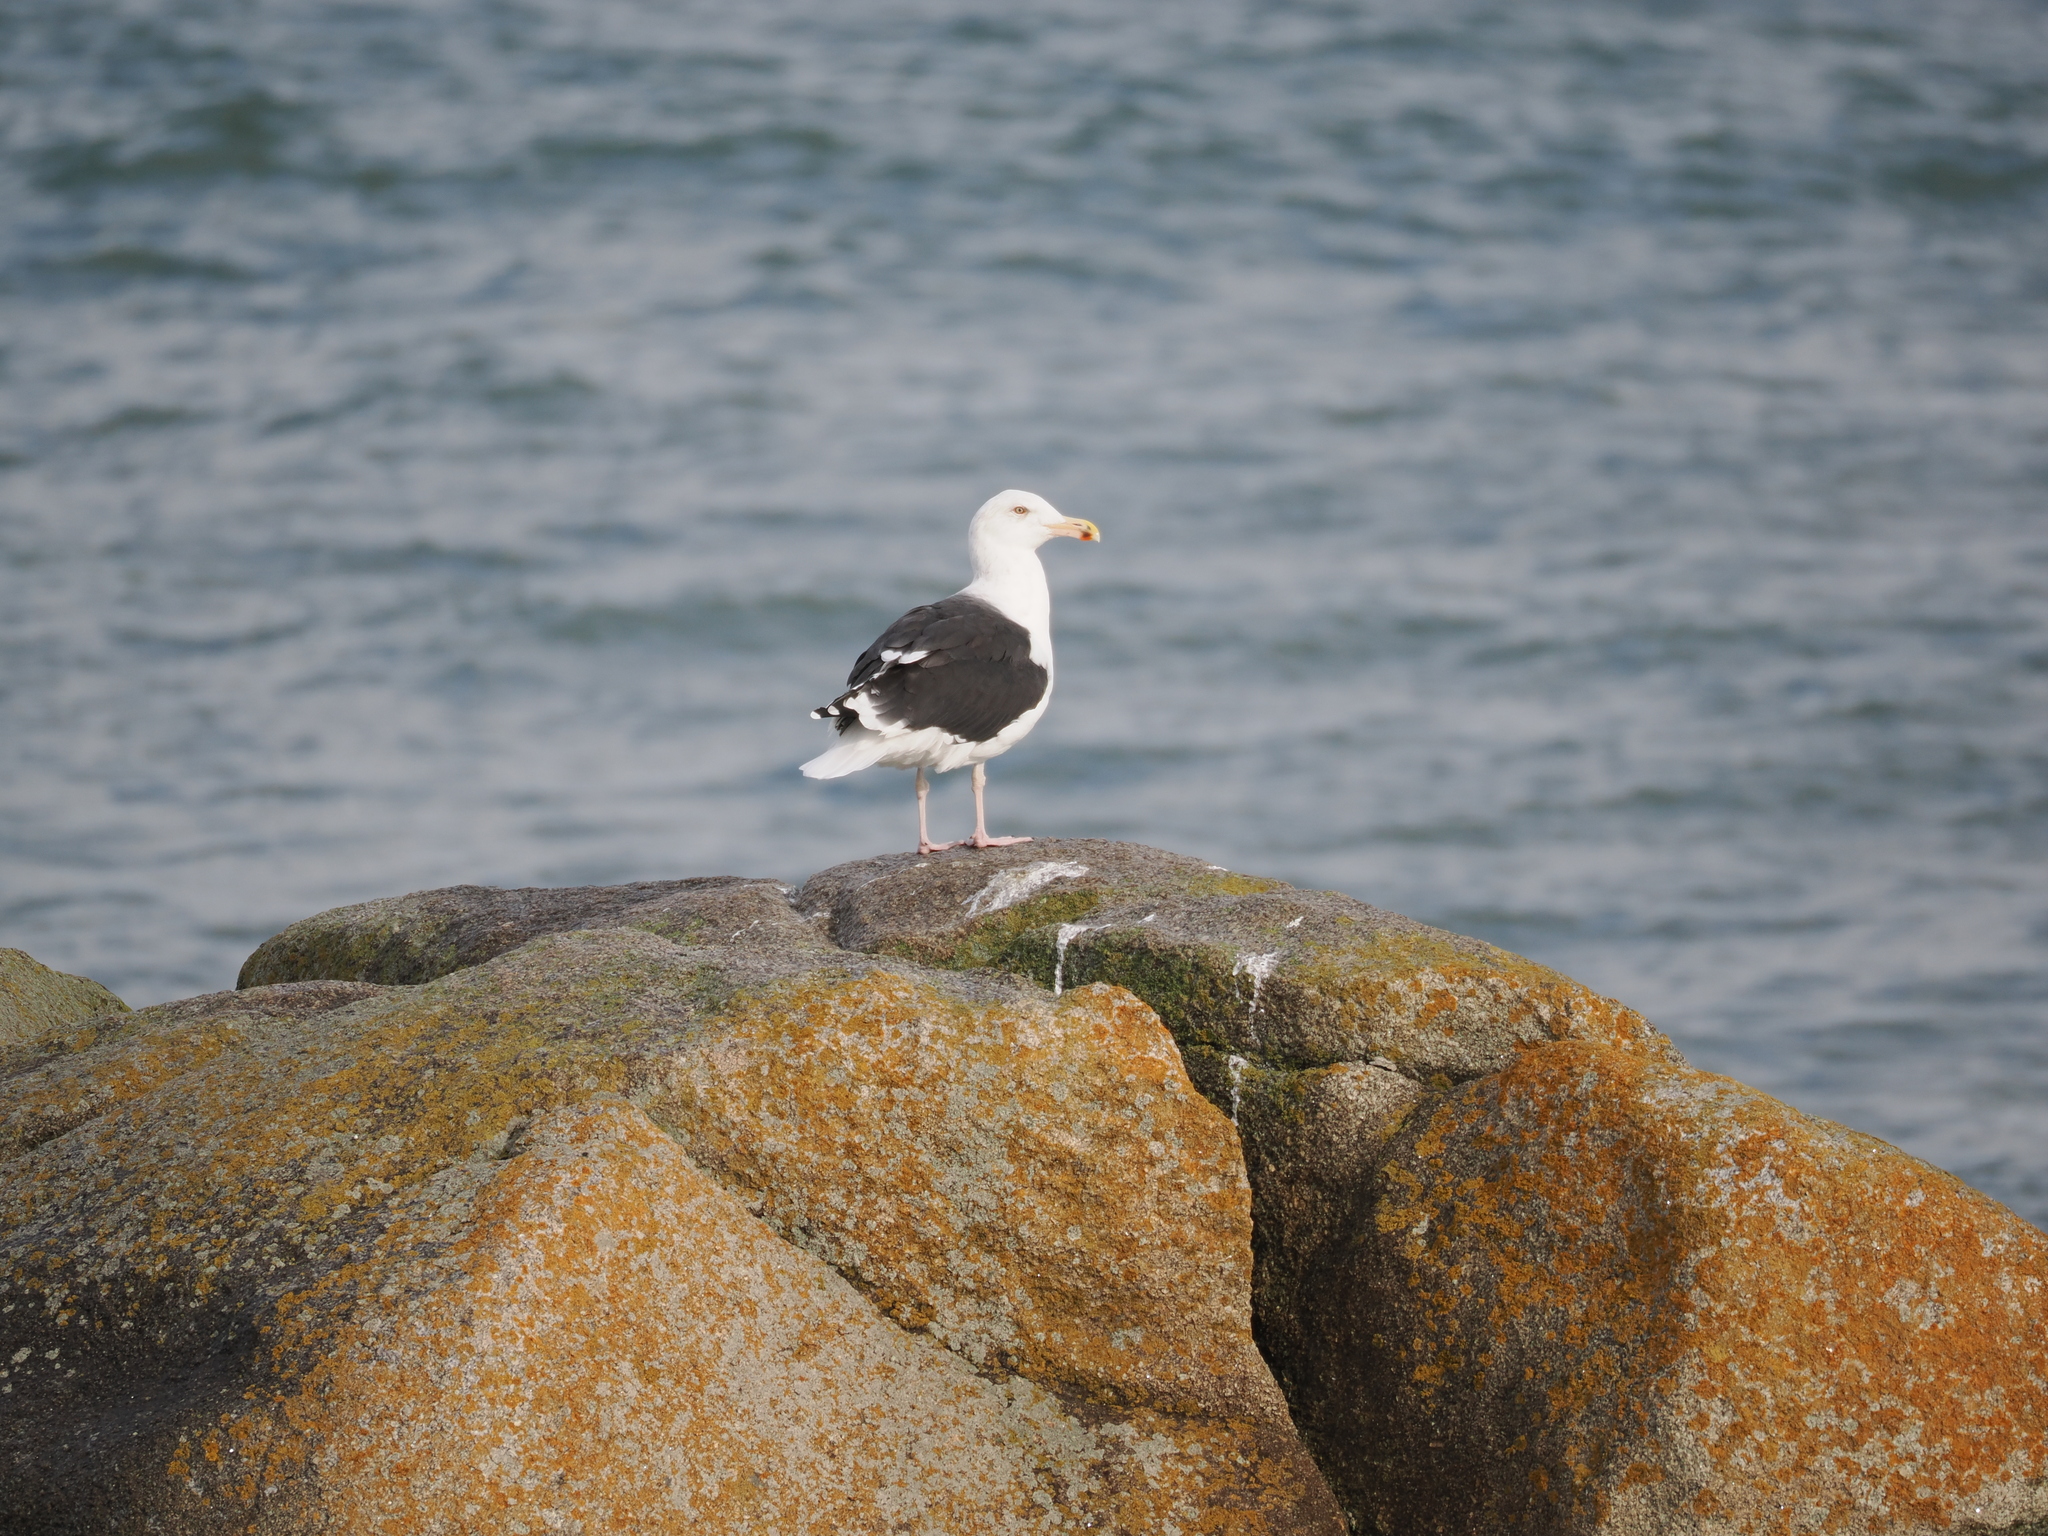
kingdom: Animalia
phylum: Chordata
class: Aves
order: Charadriiformes
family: Laridae
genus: Larus
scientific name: Larus marinus
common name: Great black-backed gull
